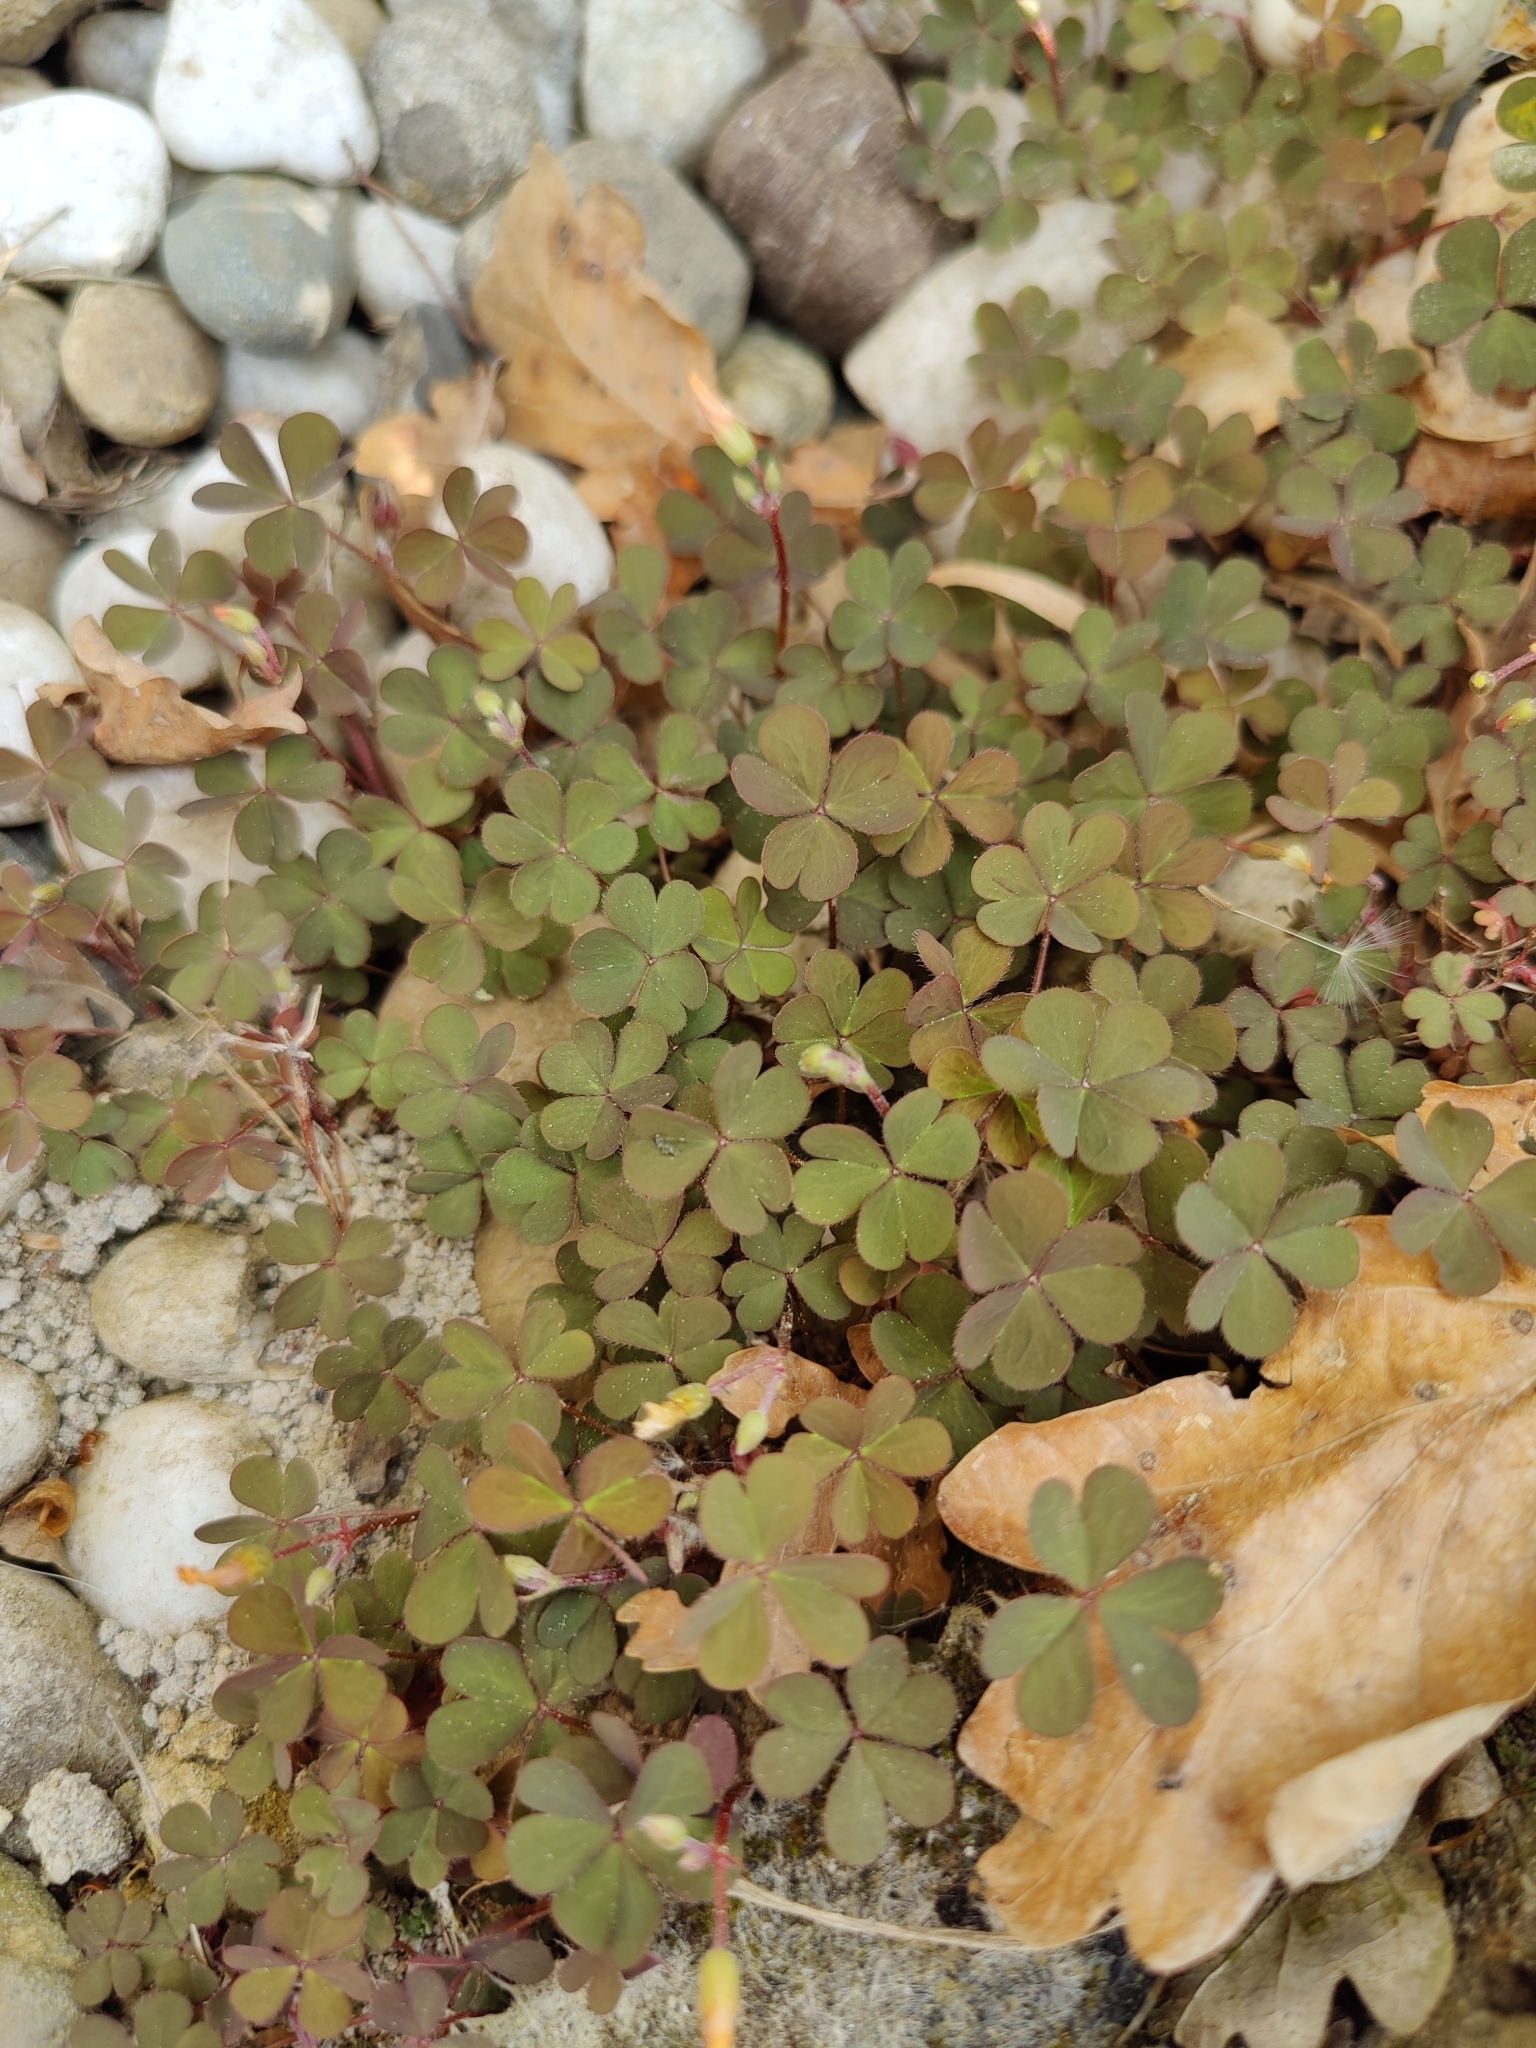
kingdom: Plantae
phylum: Tracheophyta
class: Magnoliopsida
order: Oxalidales
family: Oxalidaceae
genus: Oxalis
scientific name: Oxalis corniculata
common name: Procumbent yellow-sorrel
